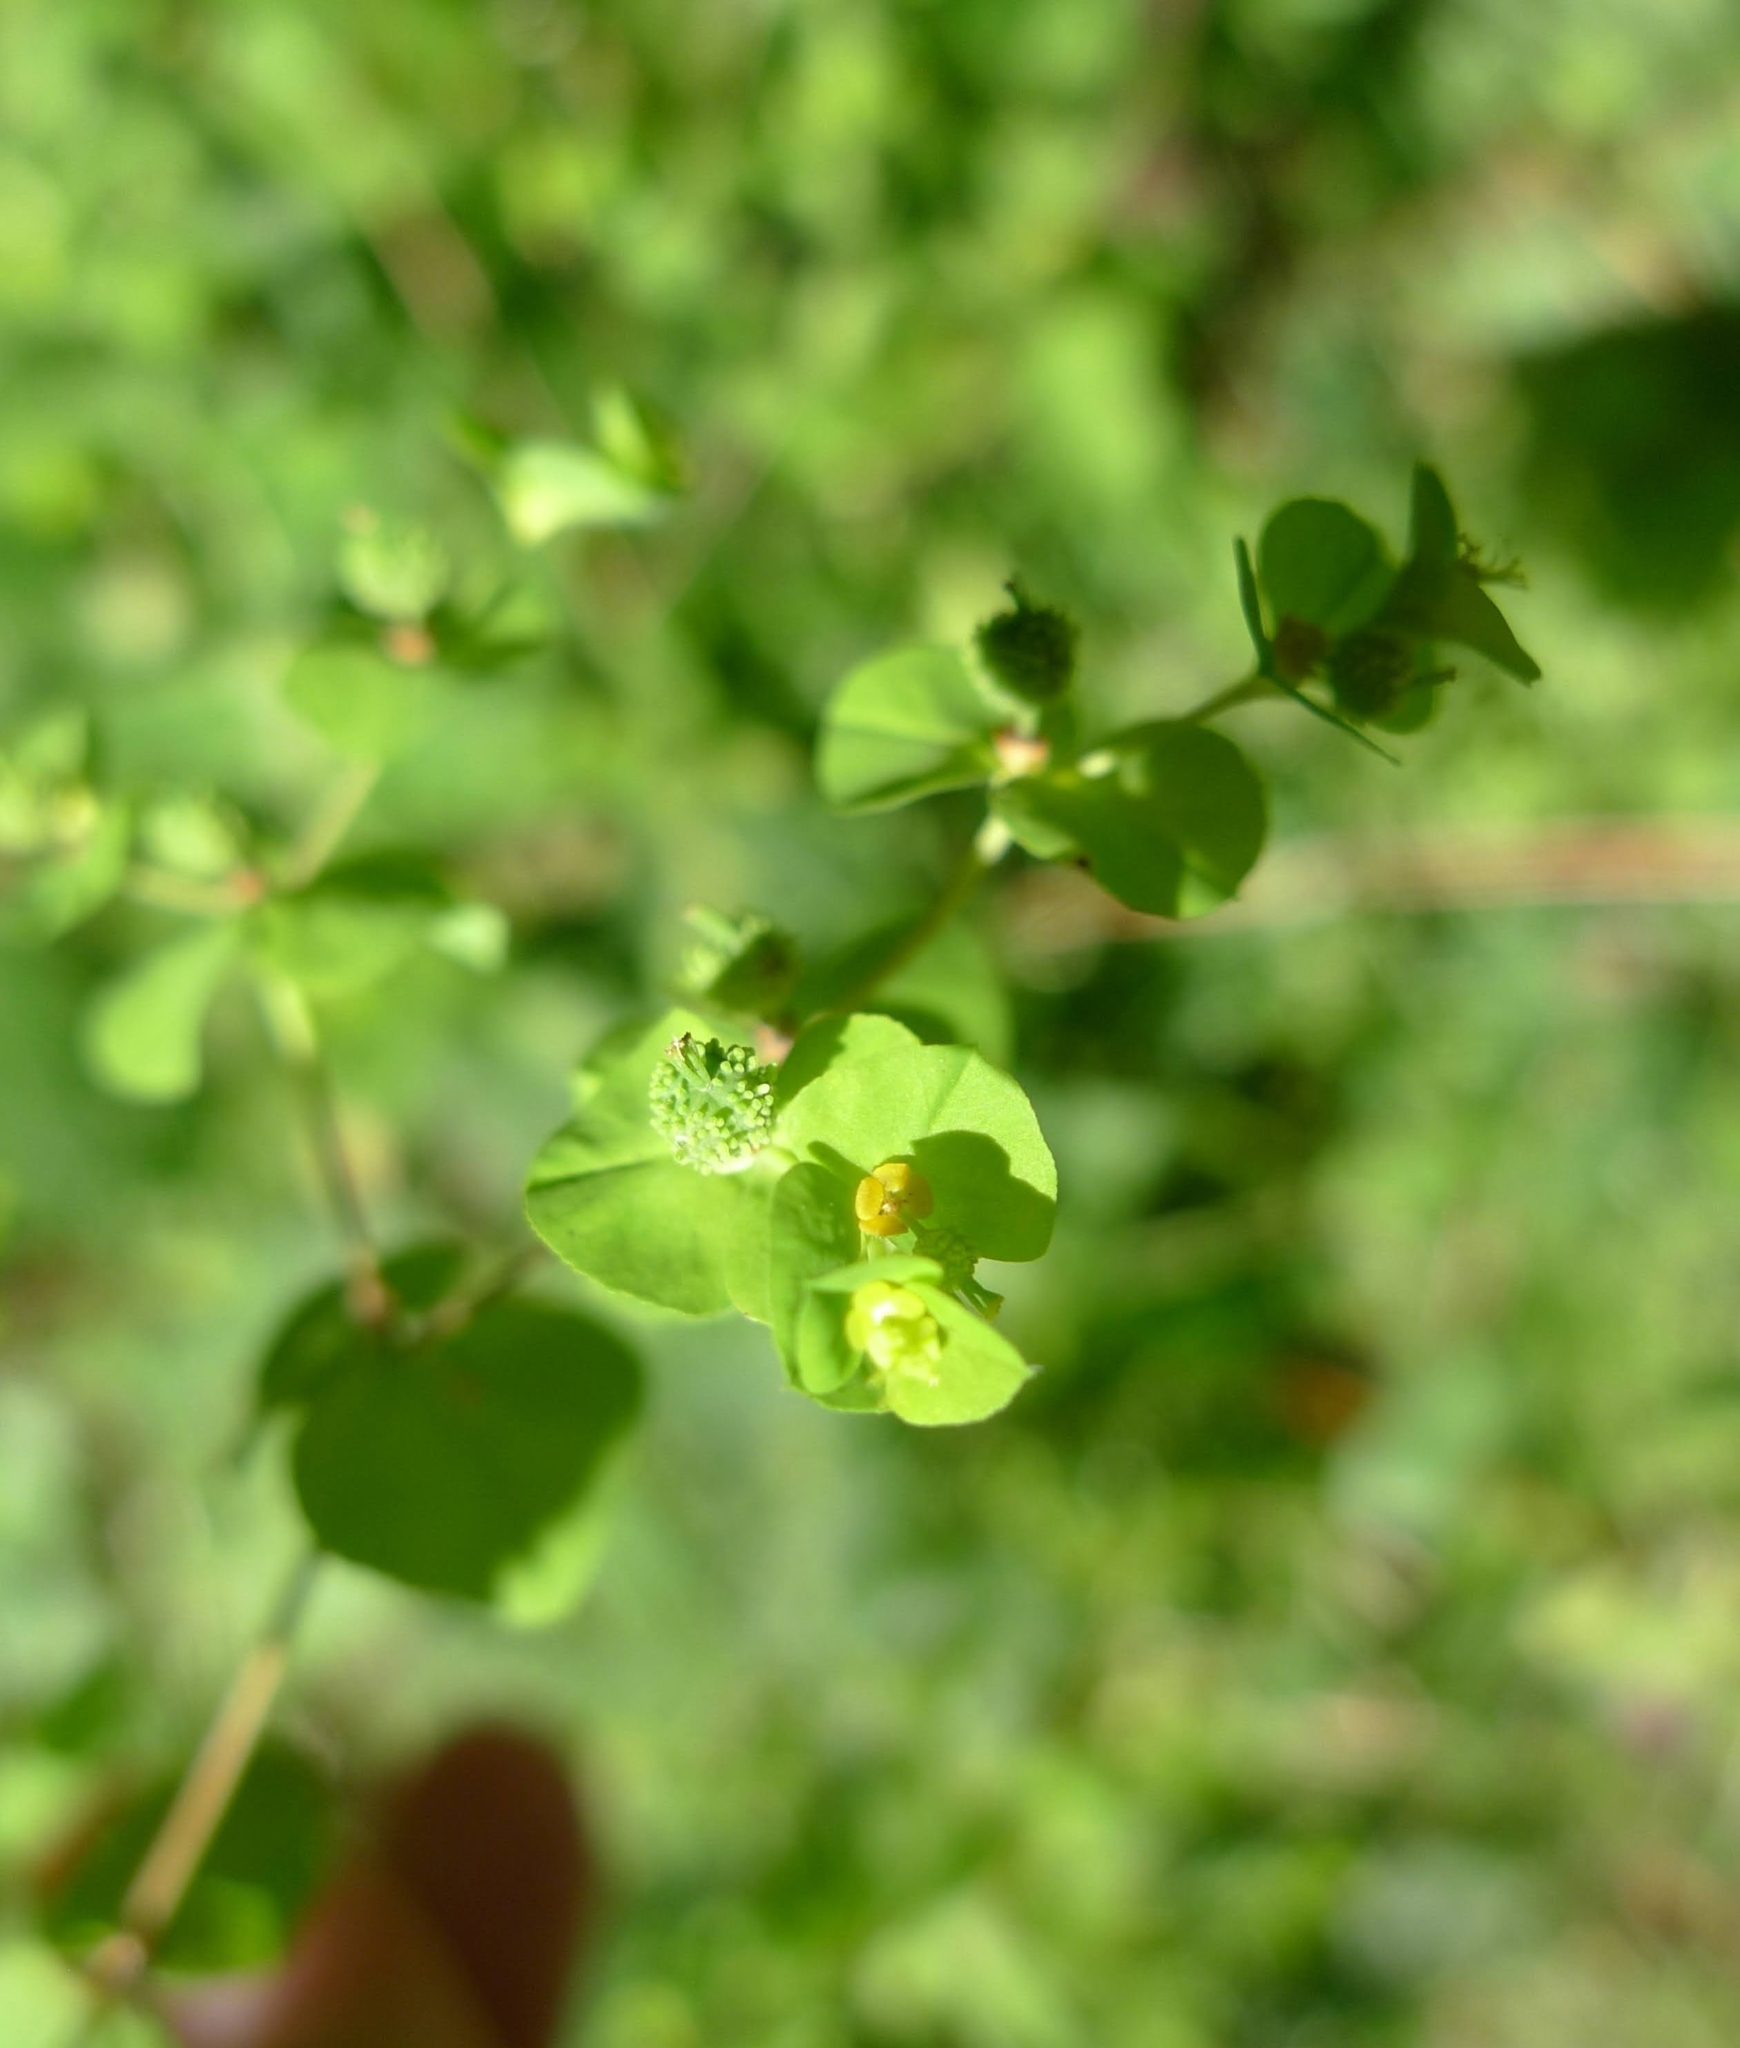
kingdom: Plantae
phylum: Tracheophyta
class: Magnoliopsida
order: Malpighiales
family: Euphorbiaceae
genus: Euphorbia
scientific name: Euphorbia stricta
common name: Upright spurge
